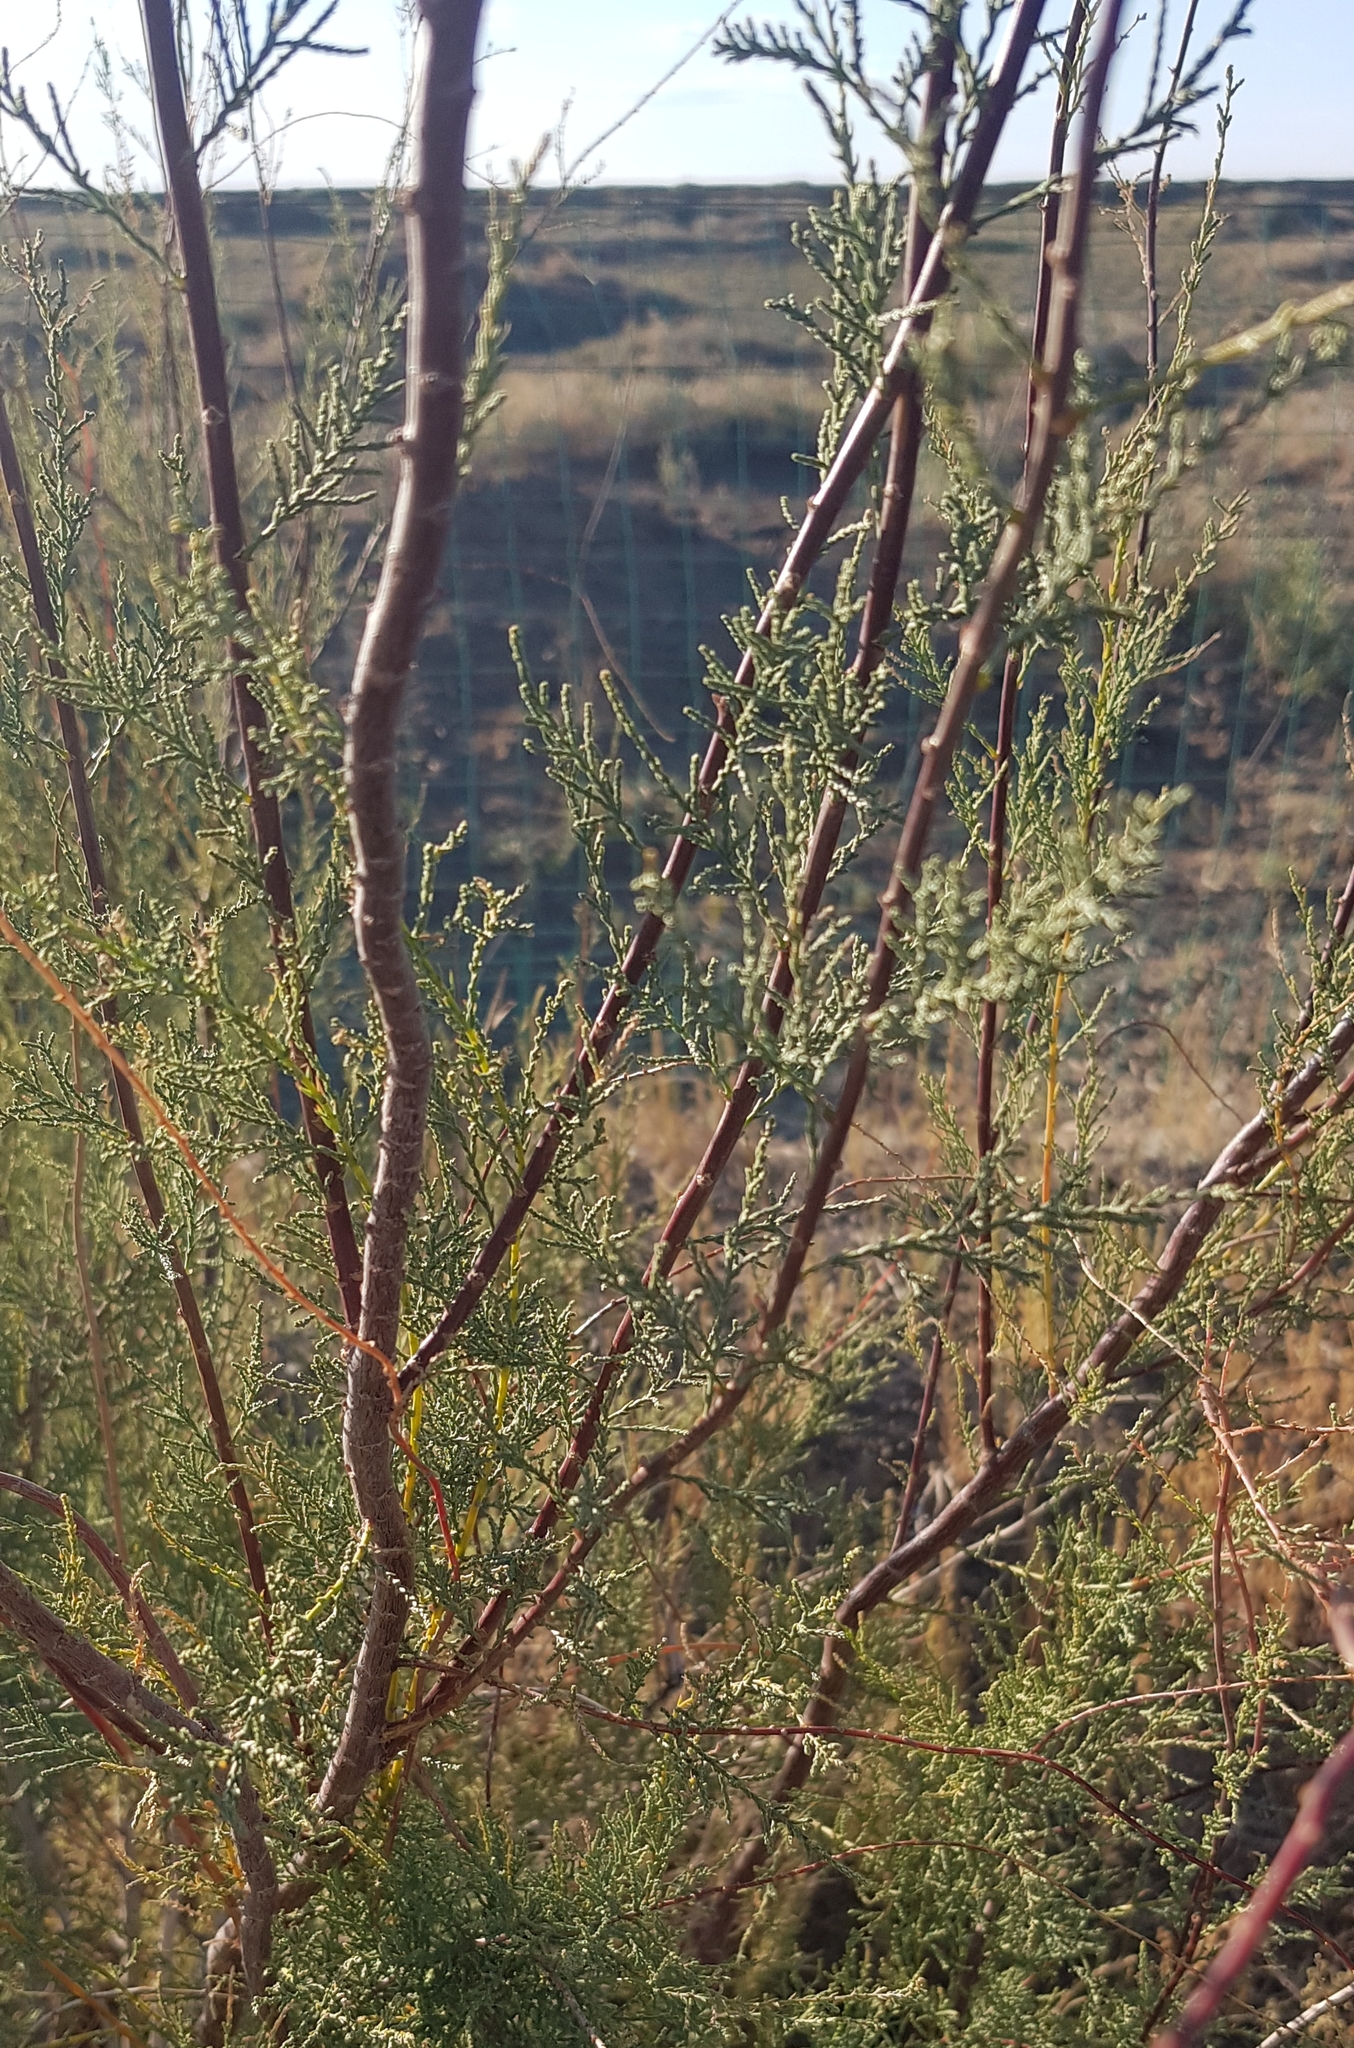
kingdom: Plantae
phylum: Tracheophyta
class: Magnoliopsida
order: Caryophyllales
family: Tamaricaceae
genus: Tamarix
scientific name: Tamarix ramosissima
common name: Pink tamarisk
